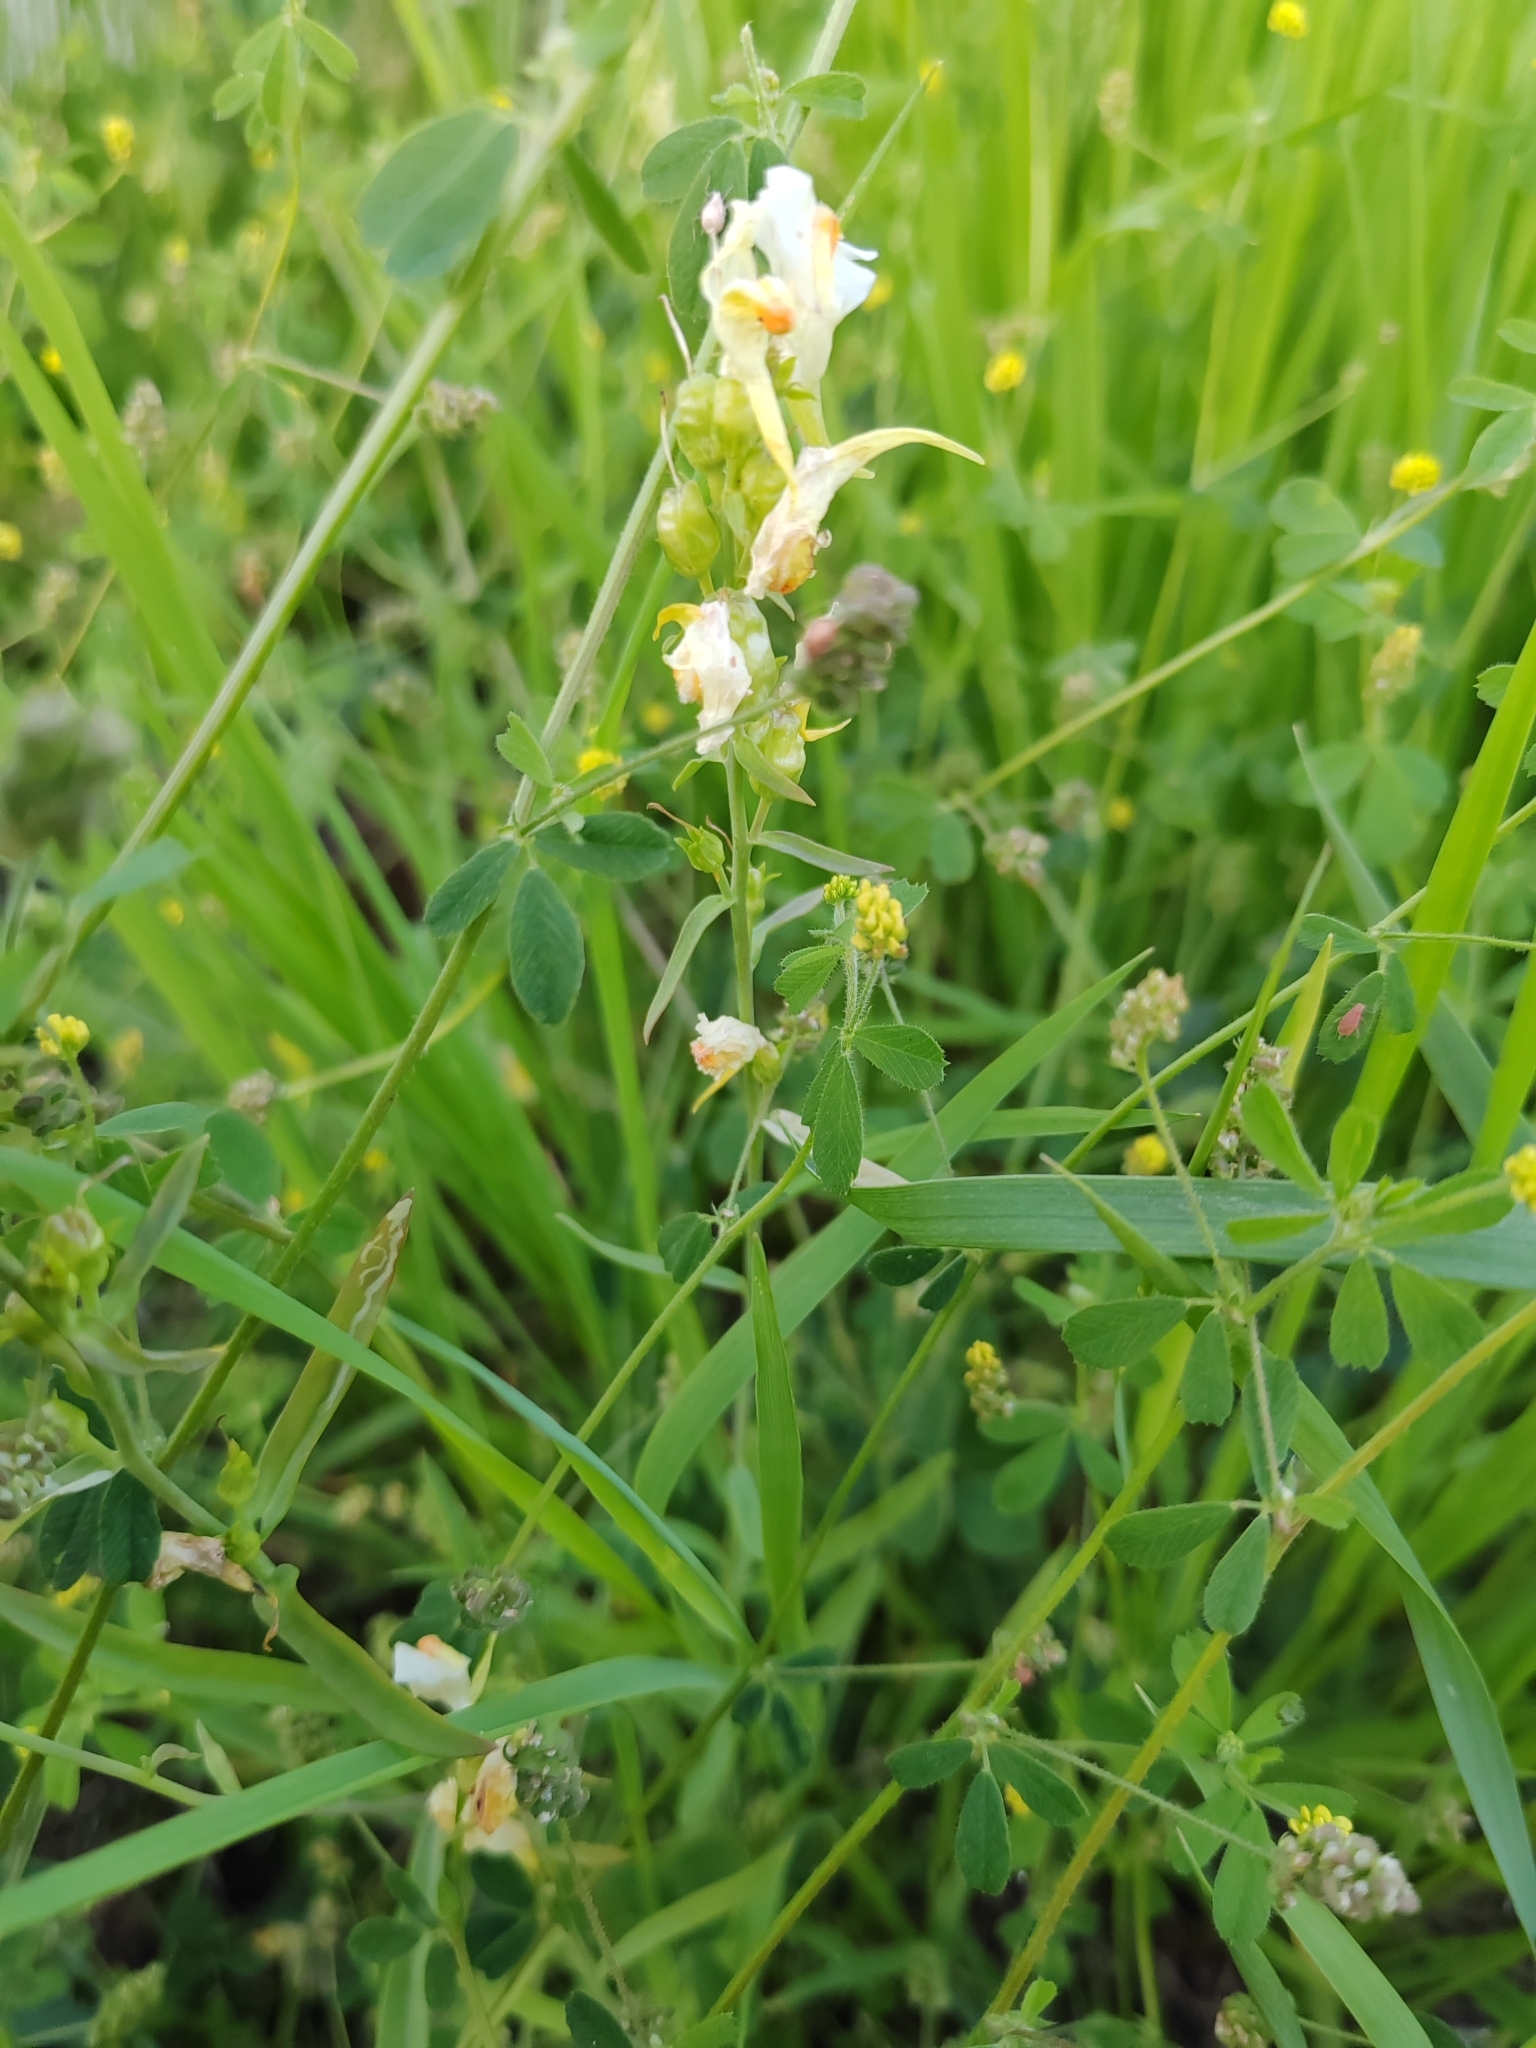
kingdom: Plantae
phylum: Tracheophyta
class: Magnoliopsida
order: Lamiales
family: Plantaginaceae
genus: Linaria
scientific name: Linaria vulgaris
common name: Butter and eggs
